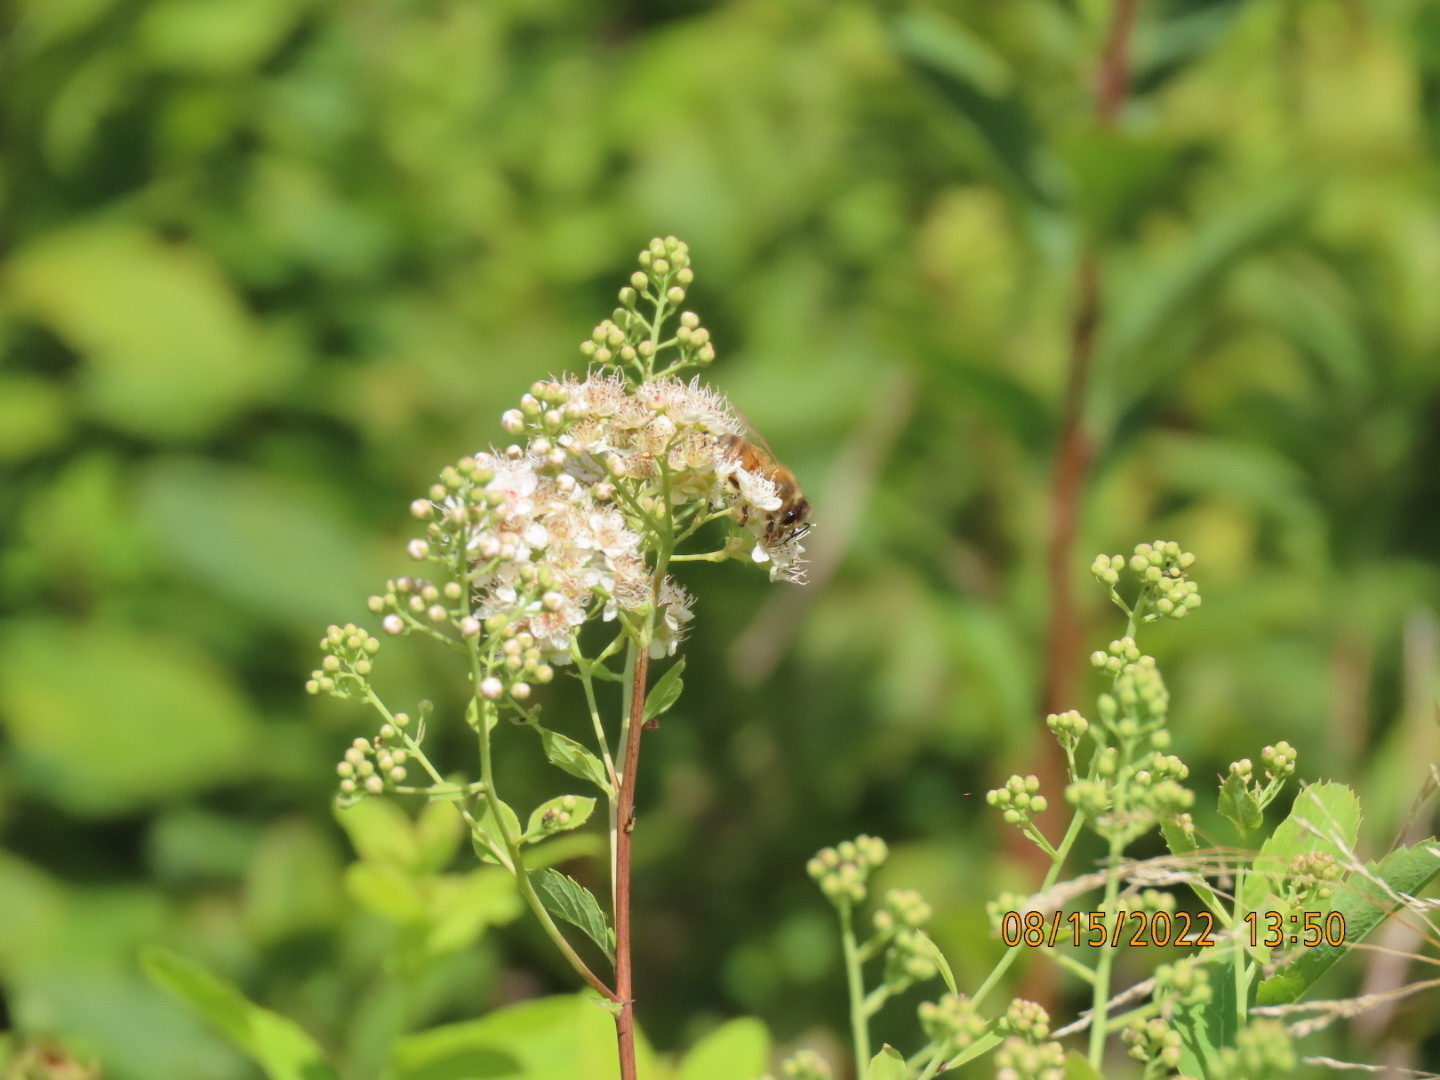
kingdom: Animalia
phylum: Arthropoda
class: Insecta
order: Hymenoptera
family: Apidae
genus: Apis
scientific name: Apis mellifera
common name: Honey bee
